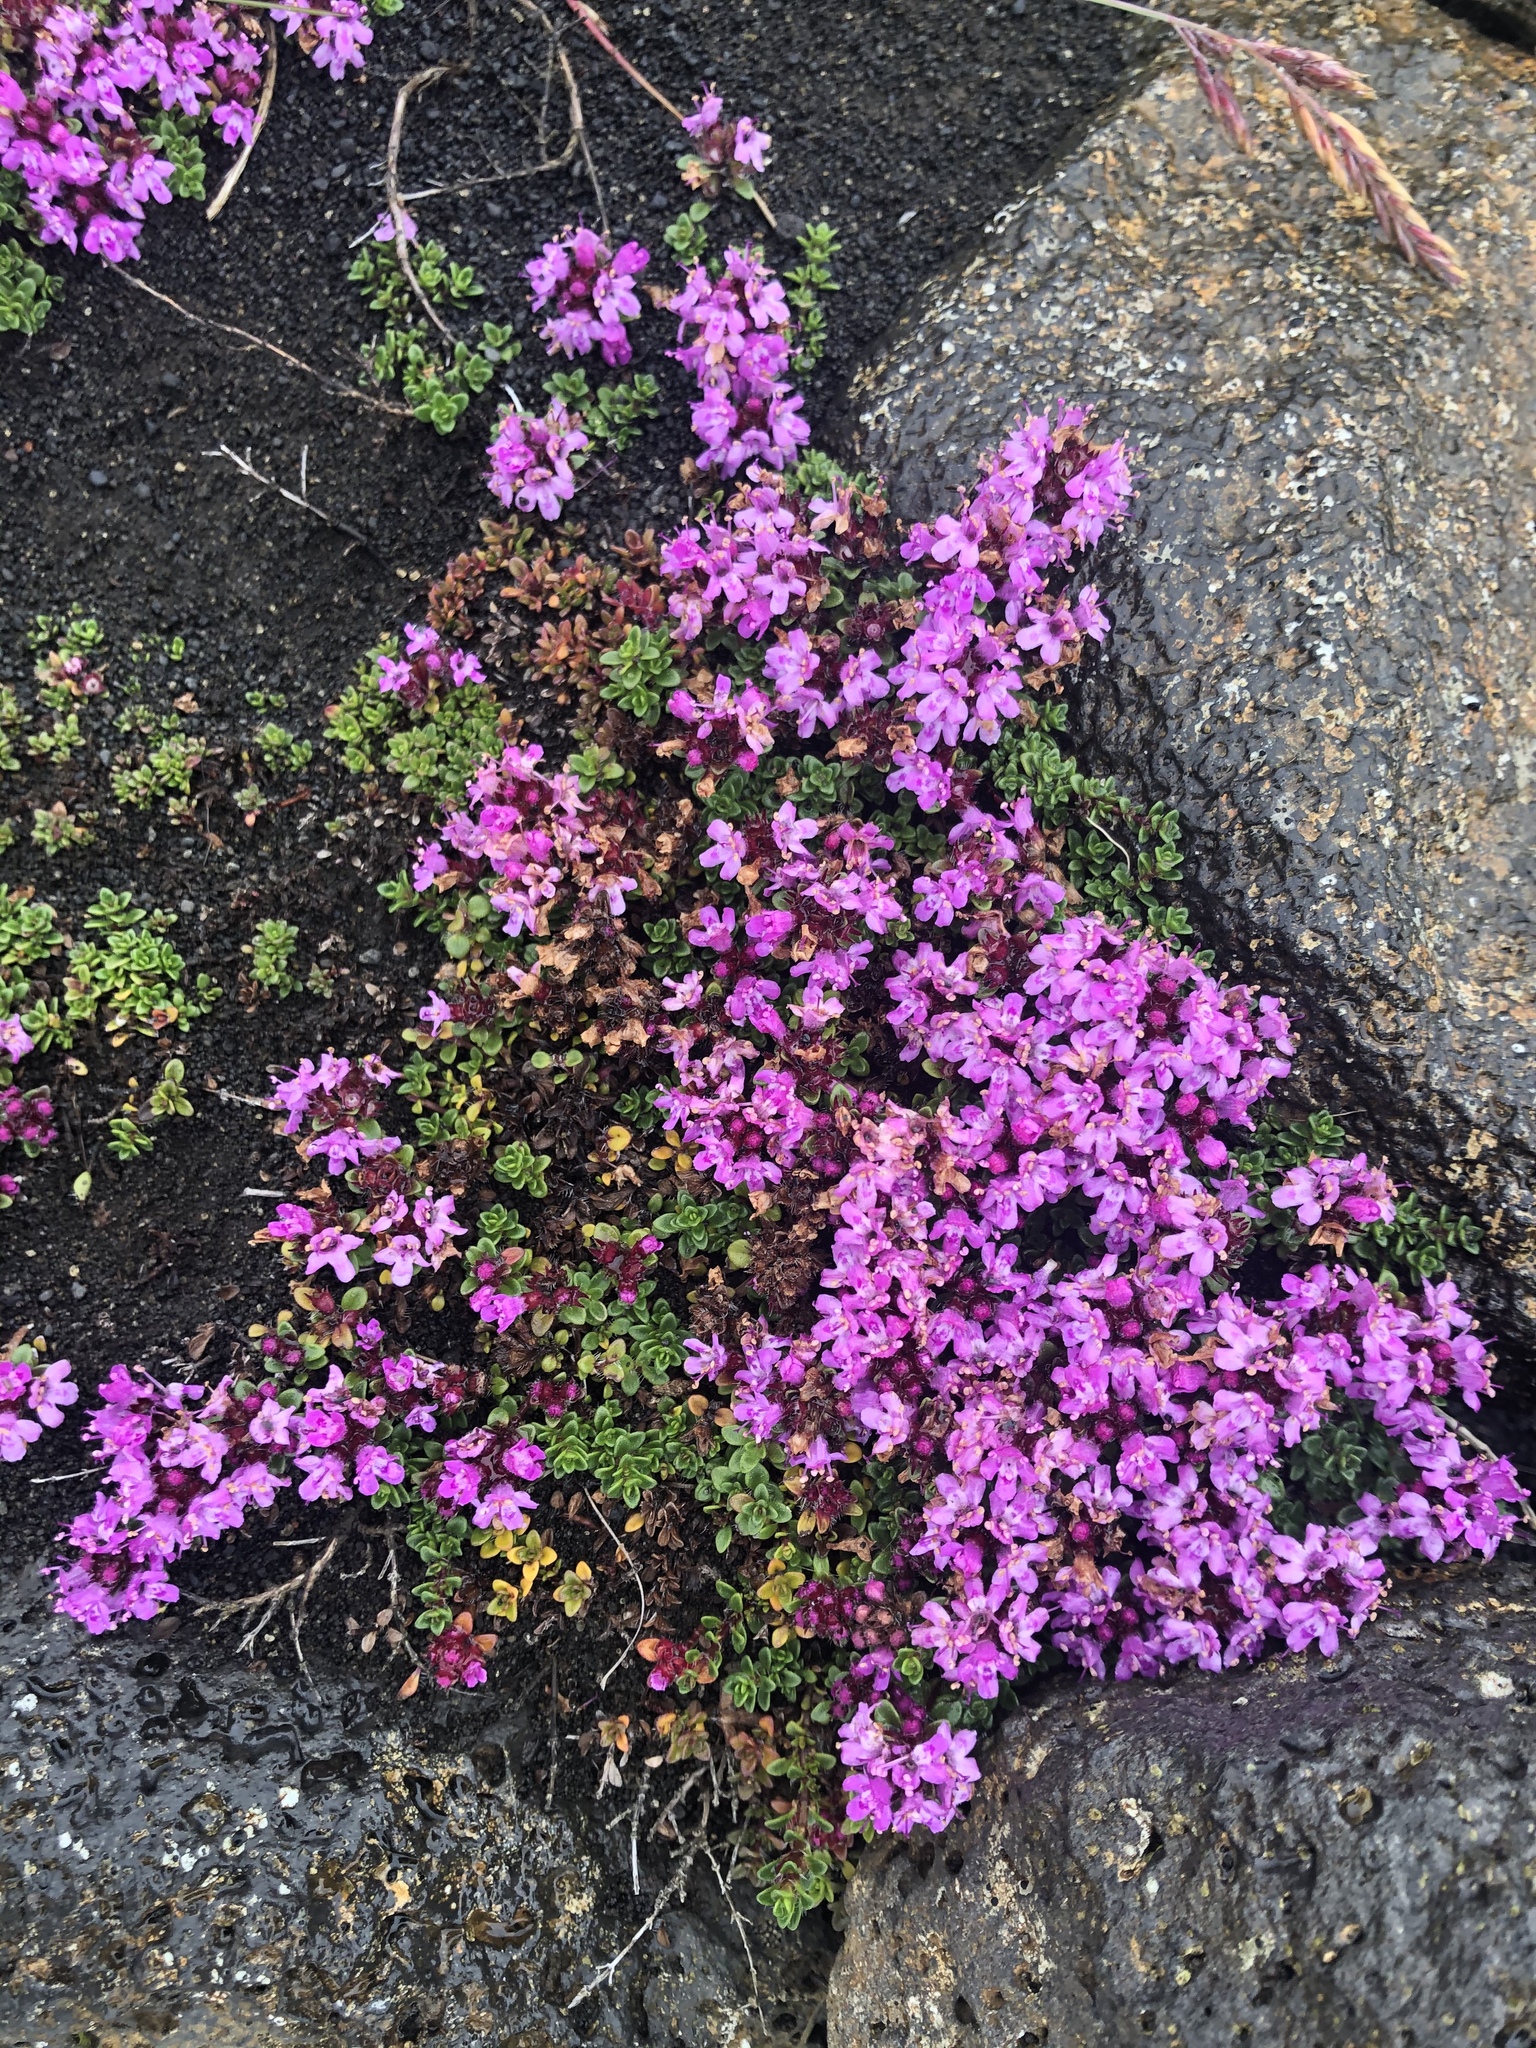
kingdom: Plantae
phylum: Tracheophyta
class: Magnoliopsida
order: Lamiales
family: Lamiaceae
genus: Thymus
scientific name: Thymus praecox
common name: Wild thyme
